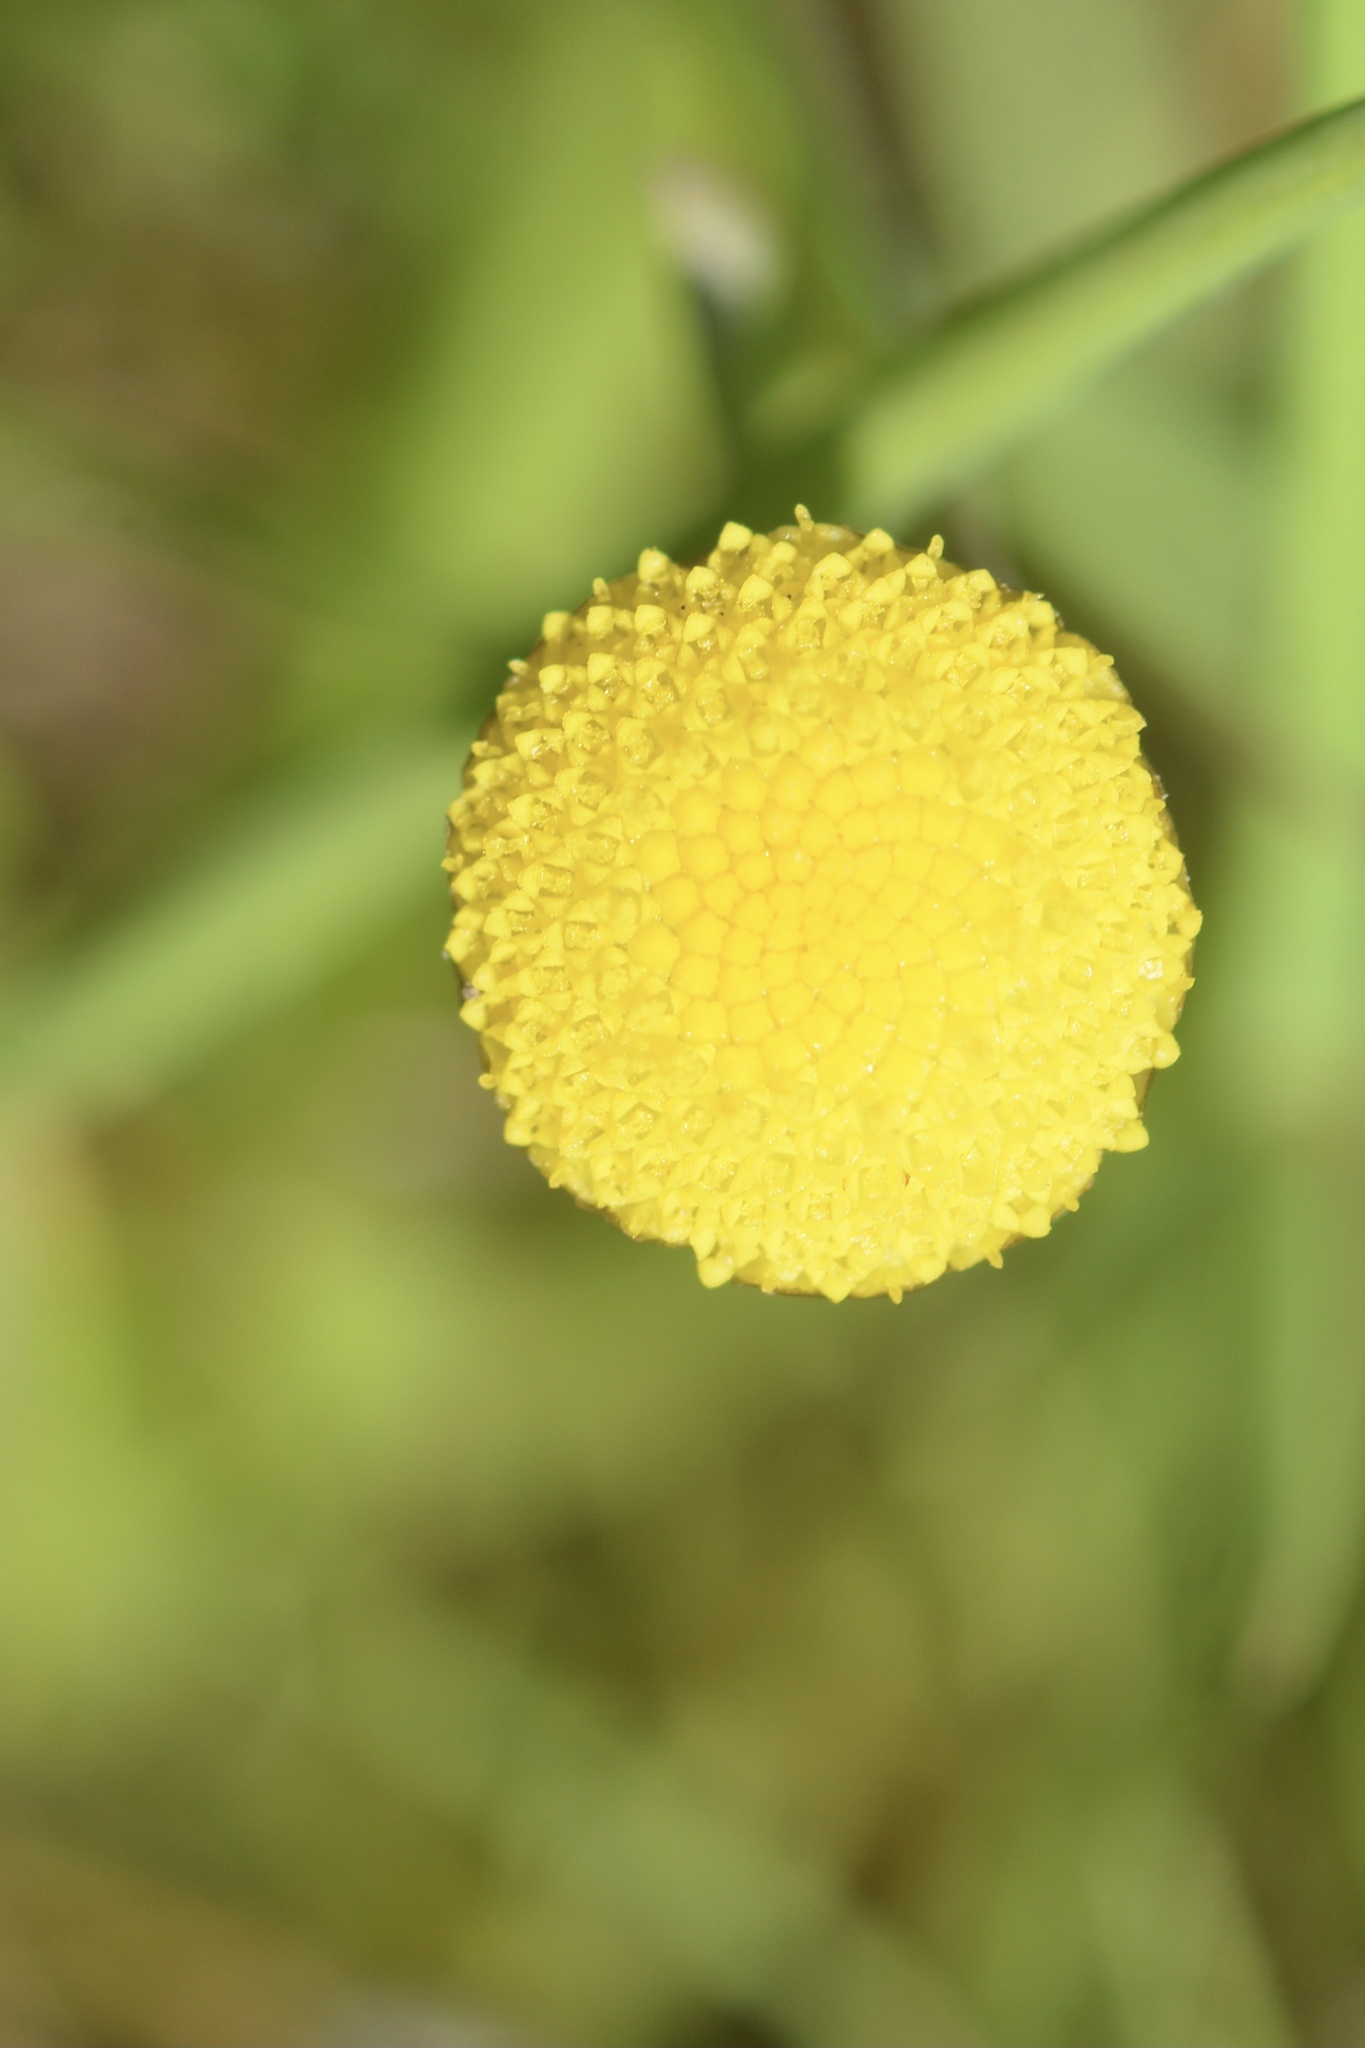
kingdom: Plantae
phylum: Tracheophyta
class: Magnoliopsida
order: Asterales
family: Asteraceae
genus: Cotula
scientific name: Cotula coronopifolia
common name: Buttonweed
